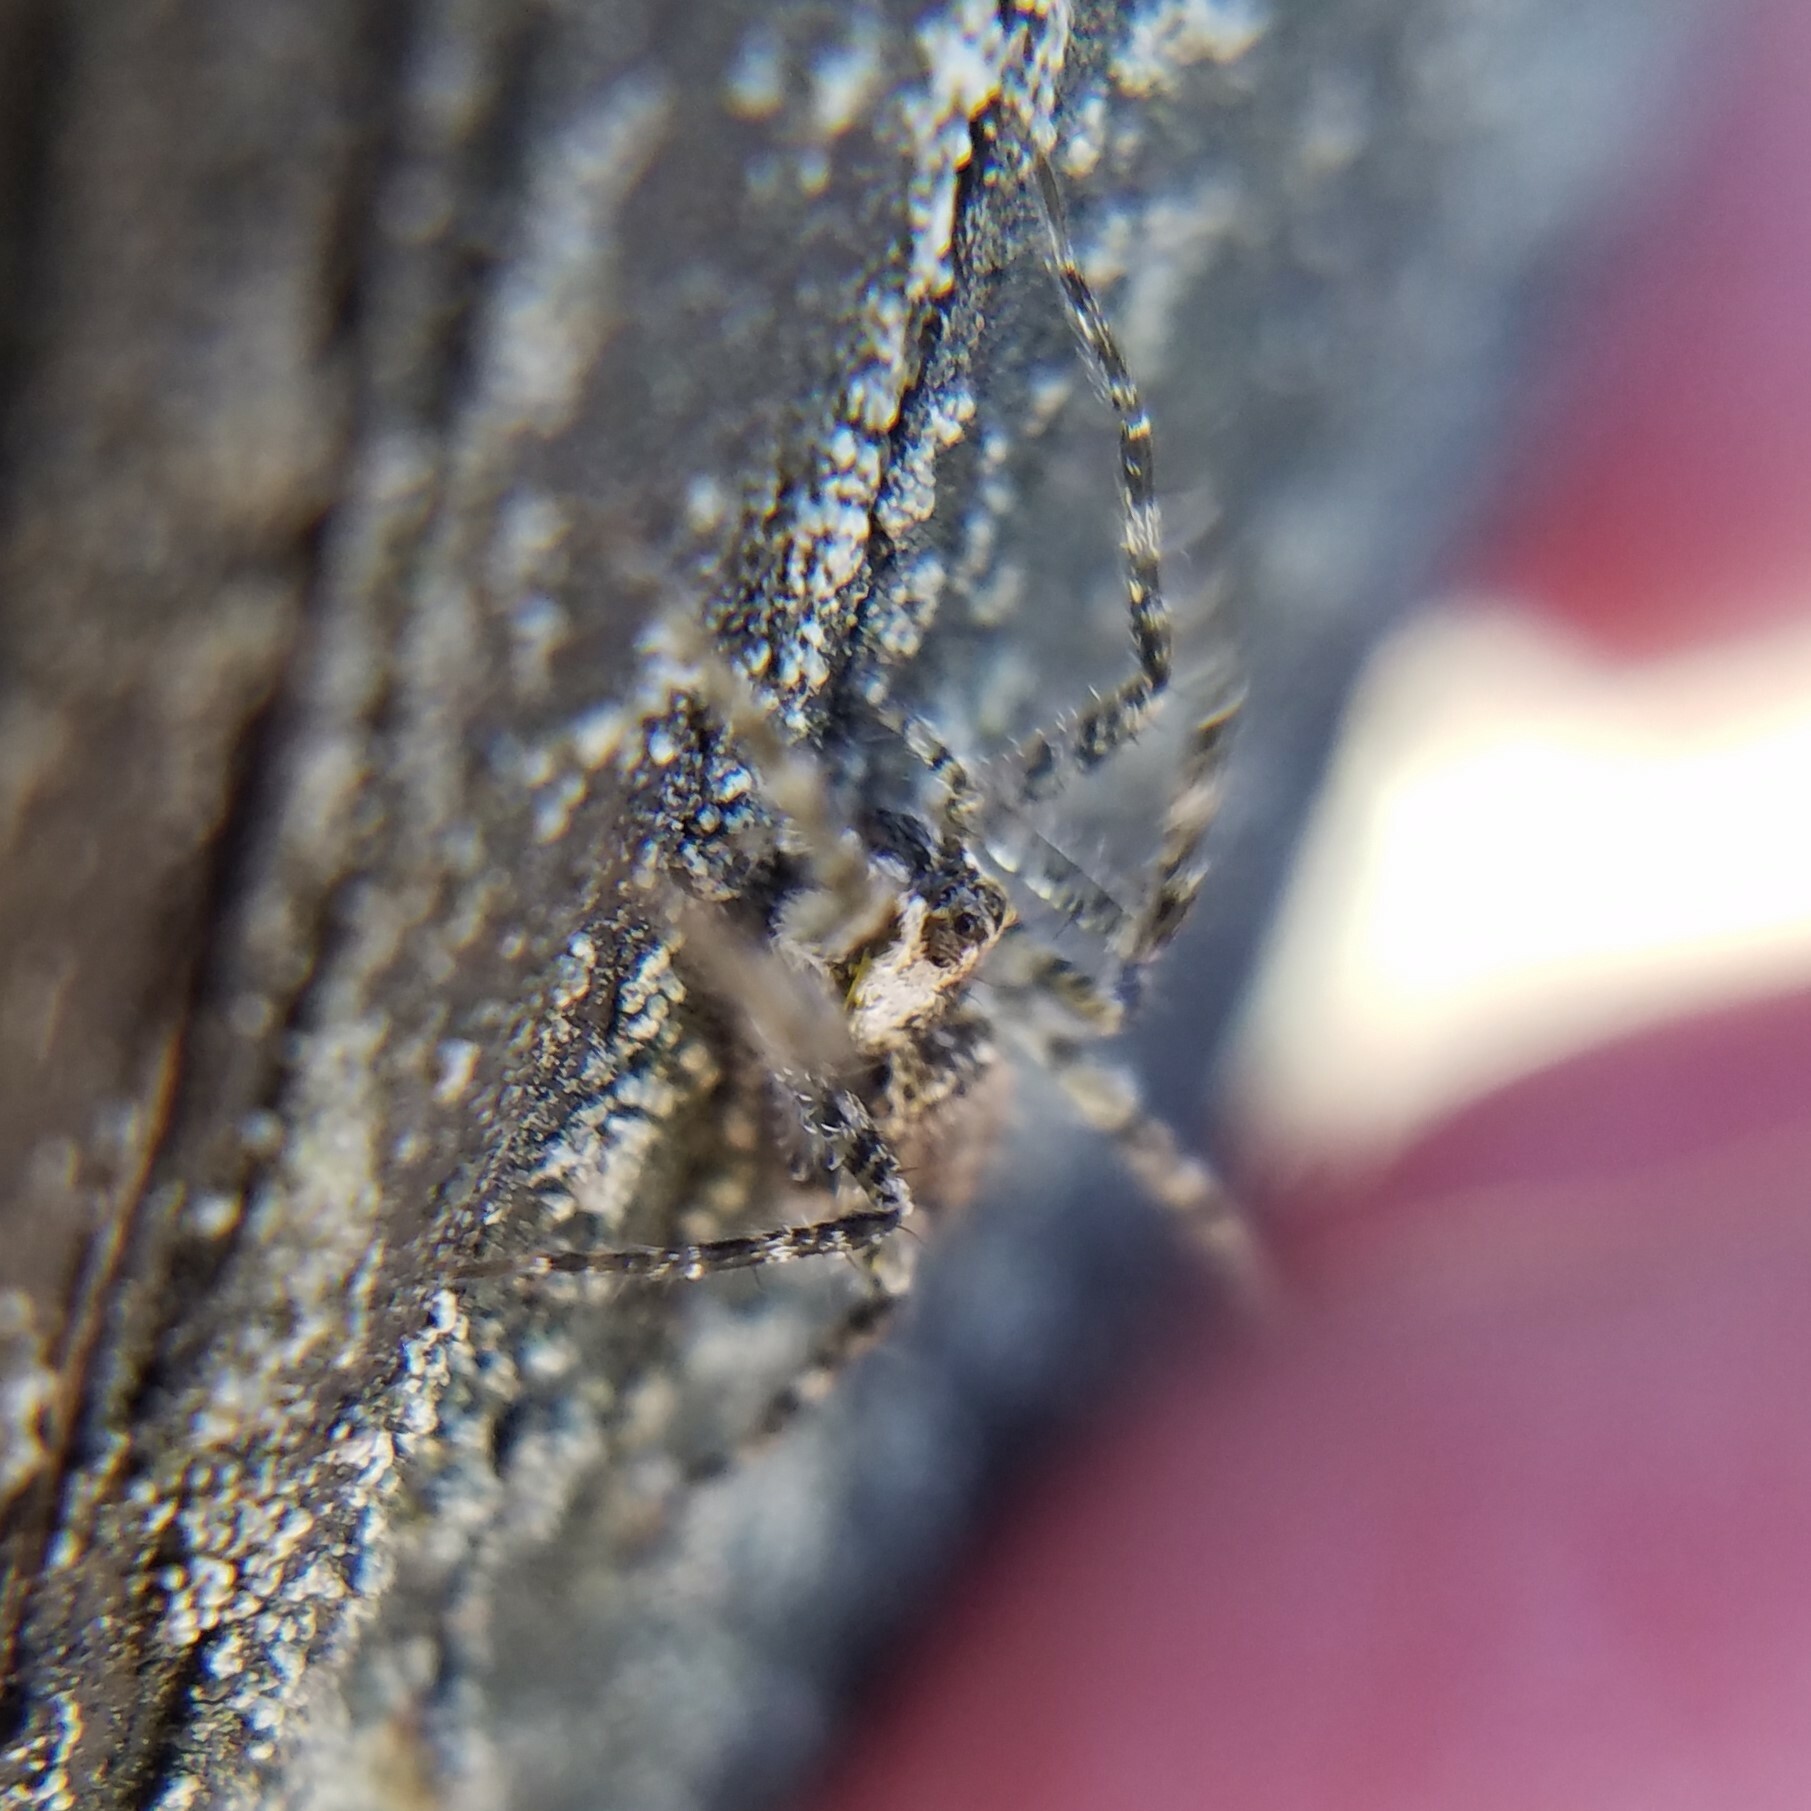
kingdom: Animalia
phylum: Arthropoda
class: Arachnida
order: Araneae
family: Pisauridae
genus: Dolomedes
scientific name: Dolomedes albineus
